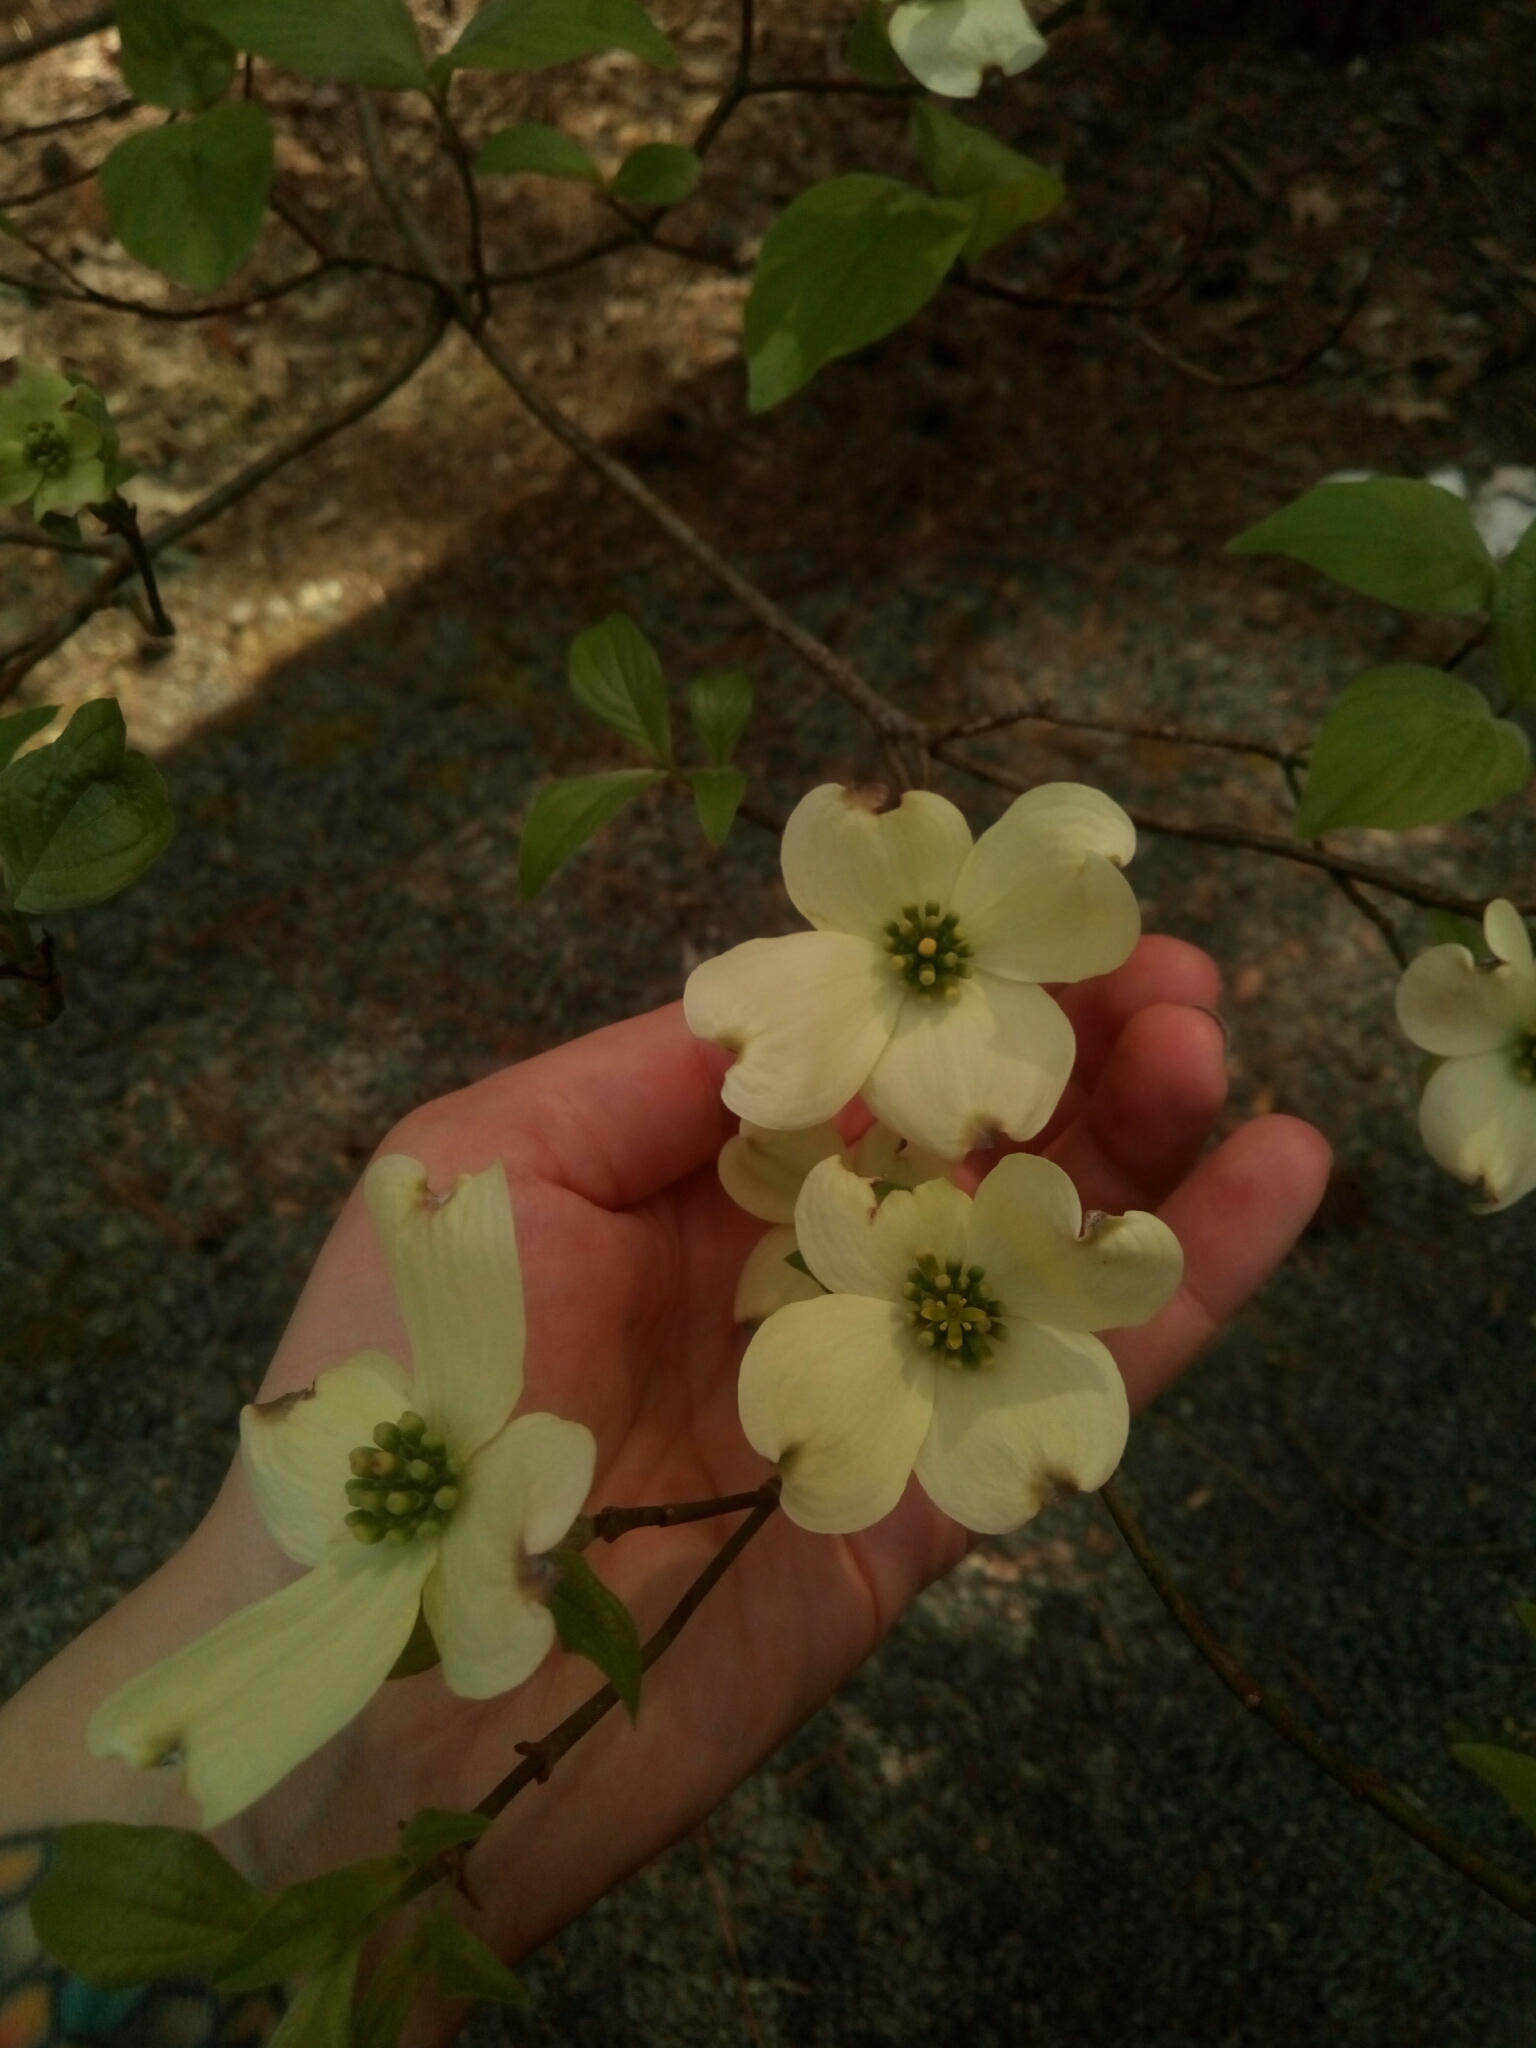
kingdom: Plantae
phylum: Tracheophyta
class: Magnoliopsida
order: Cornales
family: Cornaceae
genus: Cornus
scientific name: Cornus florida
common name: Flowering dogwood
